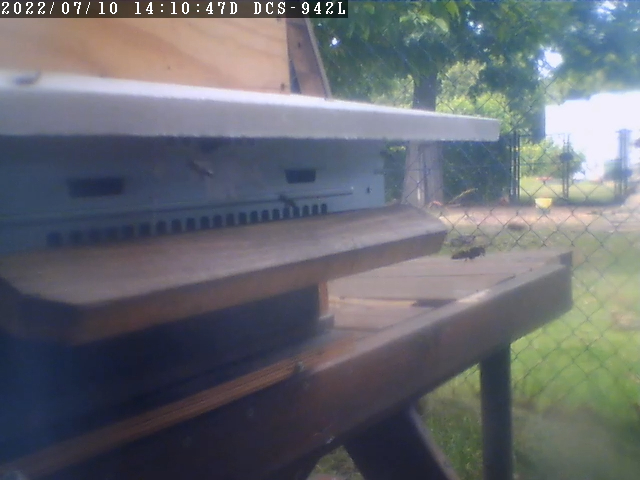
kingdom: Animalia
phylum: Arthropoda
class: Insecta
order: Hymenoptera
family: Vespidae
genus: Vespa
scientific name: Vespa velutina
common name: Asian hornet
